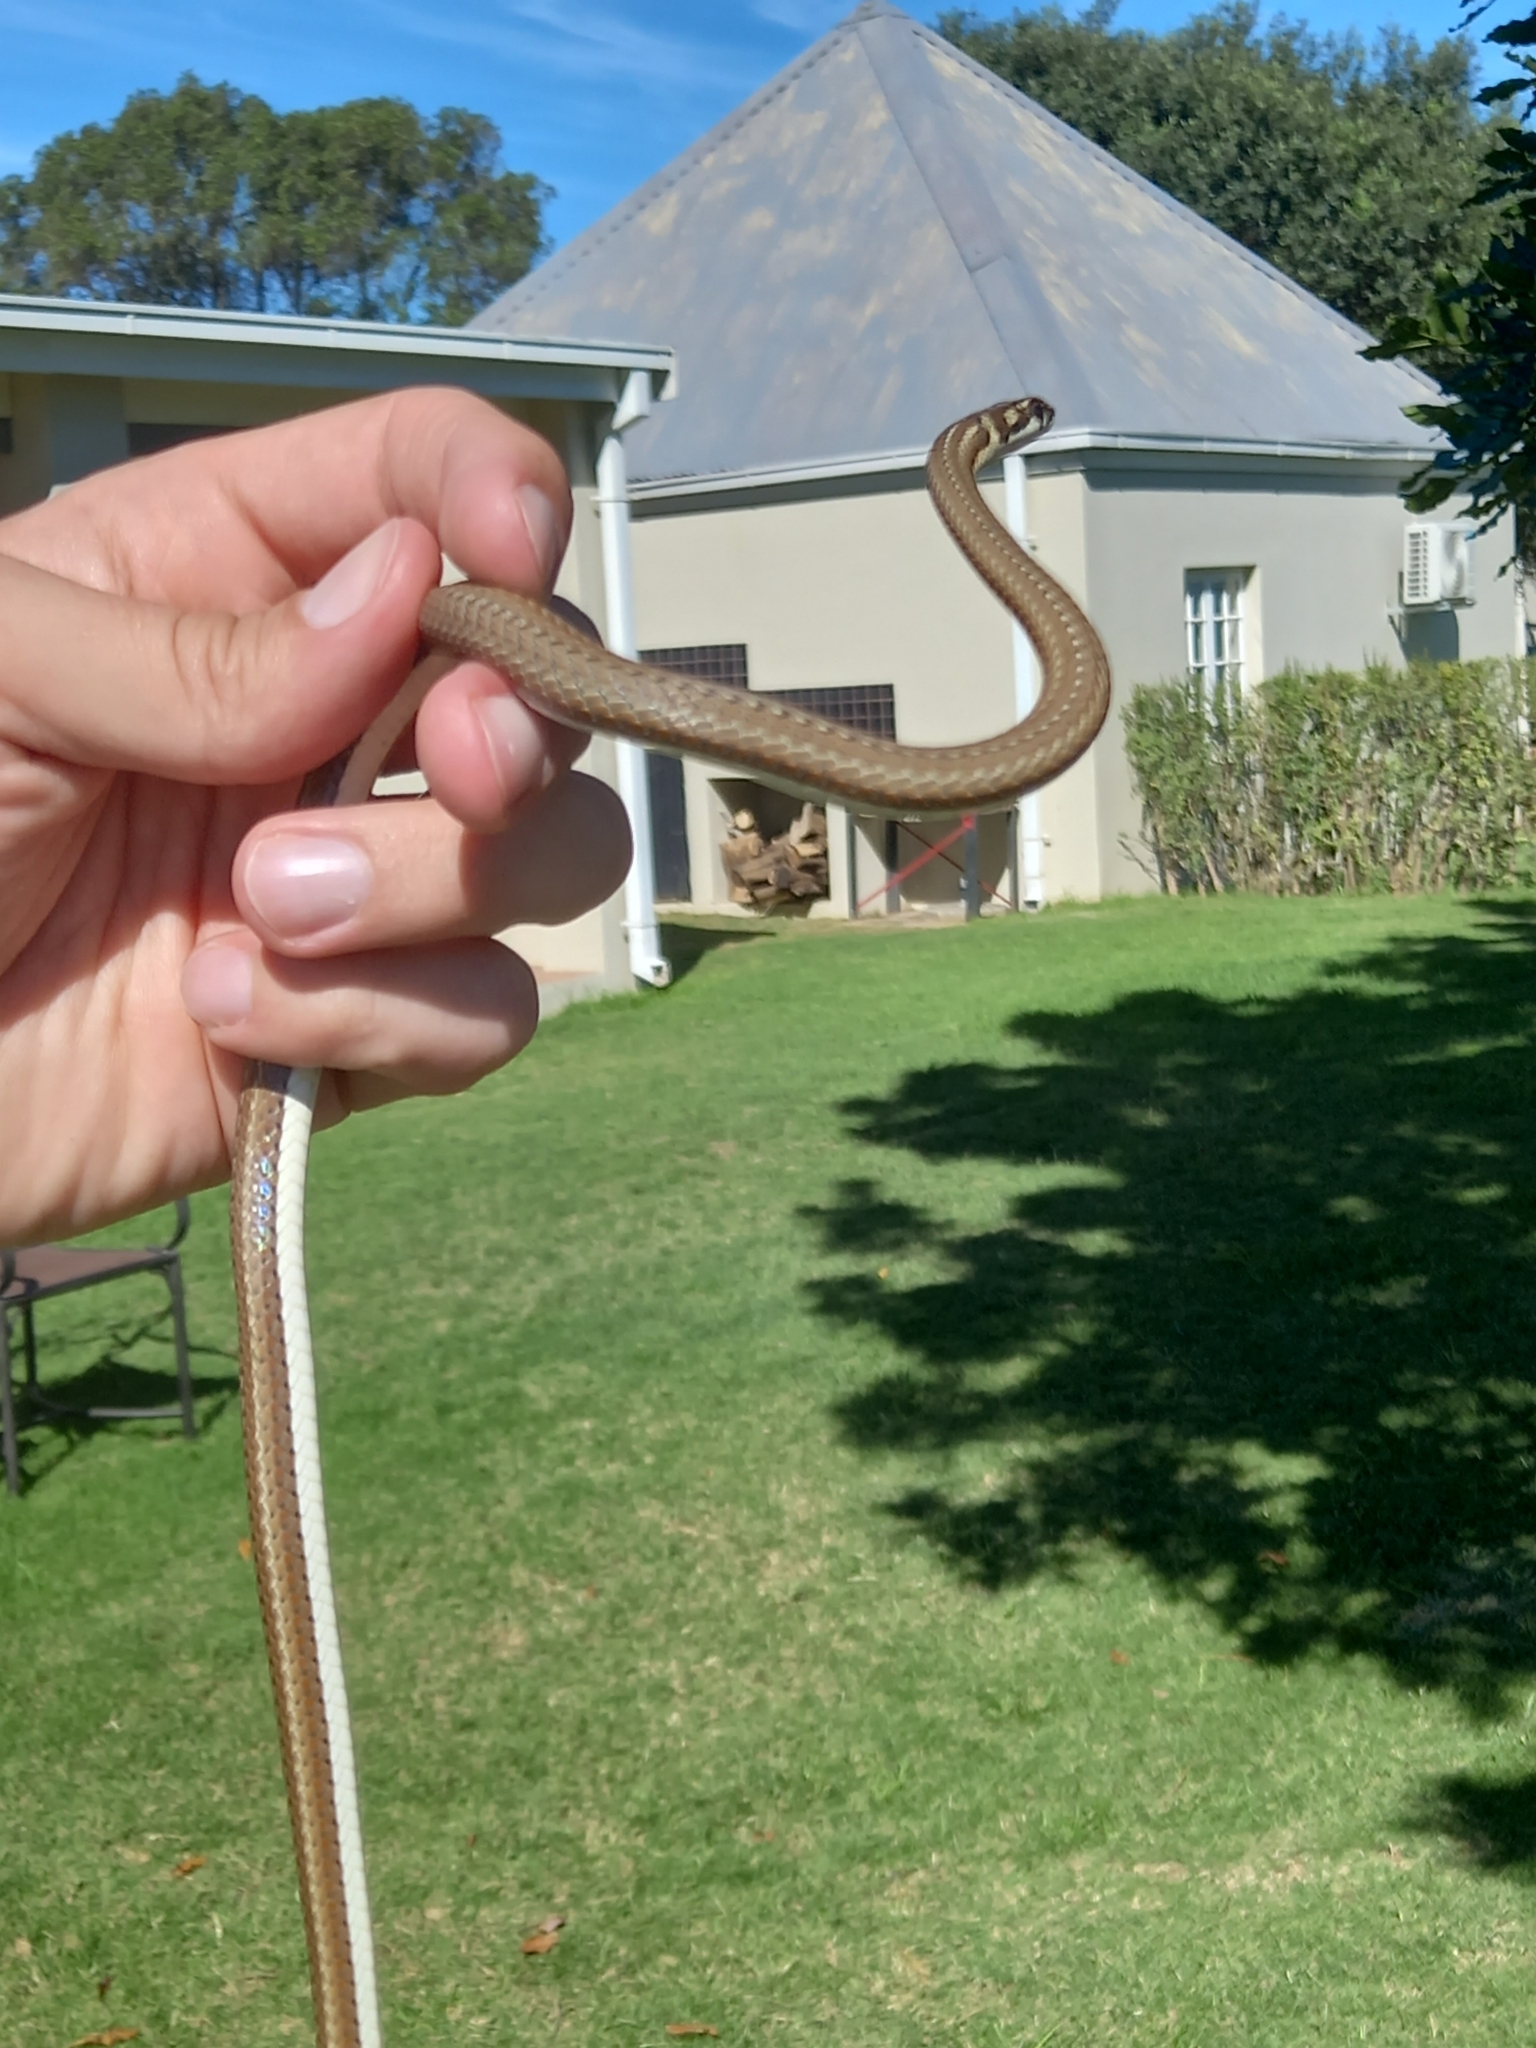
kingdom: Animalia
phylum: Chordata
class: Squamata
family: Psammophiidae
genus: Psammophis
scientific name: Psammophis notostictus
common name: Karoo sand snake
